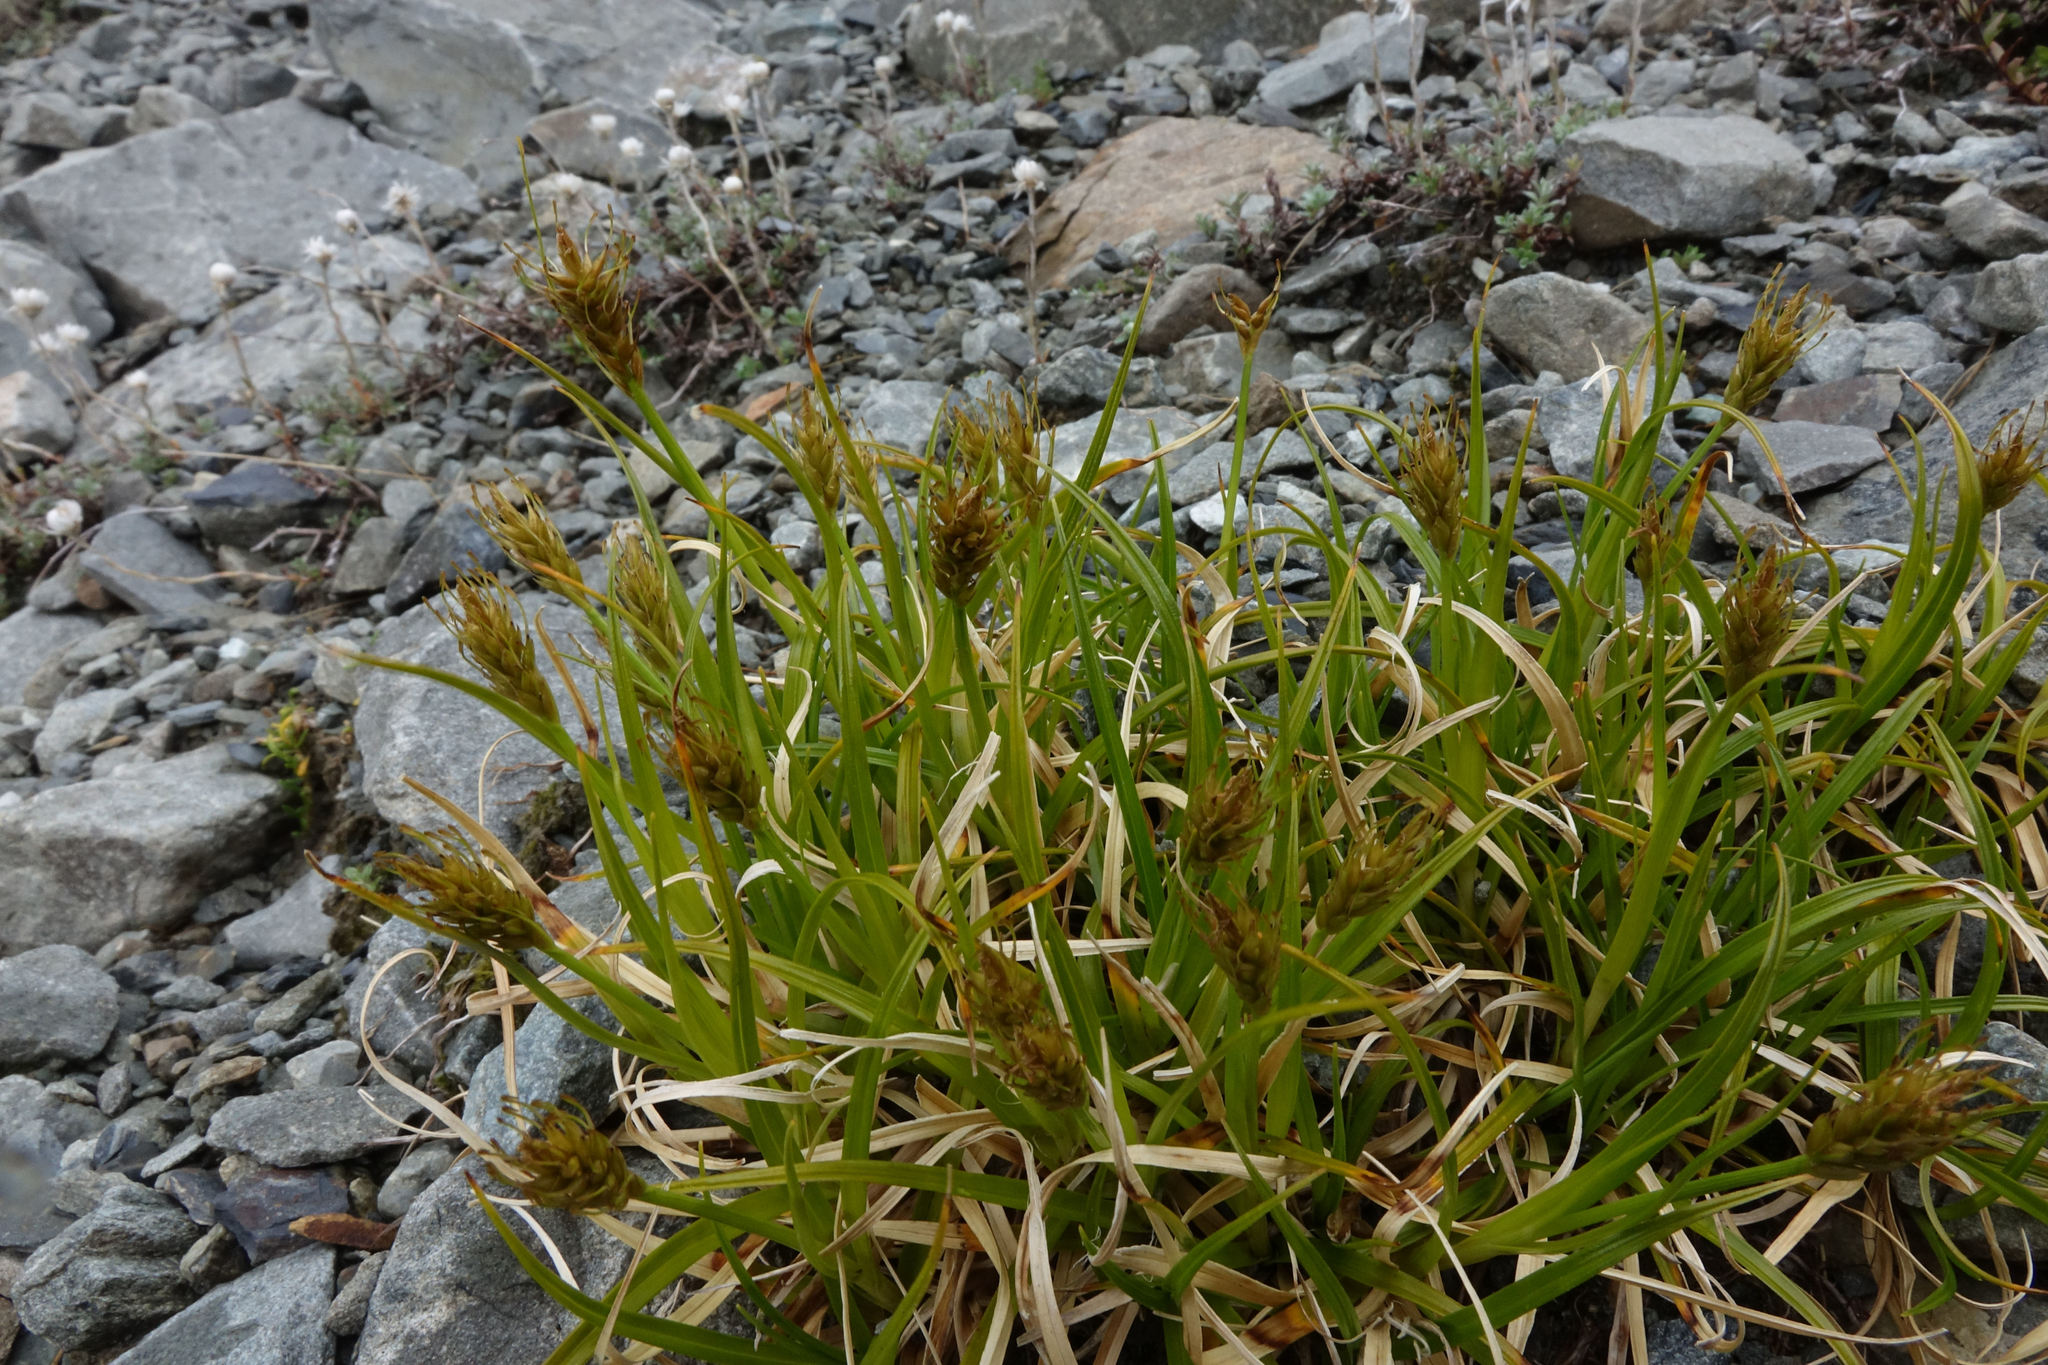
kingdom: Plantae
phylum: Tracheophyta
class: Liliopsida
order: Poales
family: Cyperaceae
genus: Carex
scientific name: Carex edura
